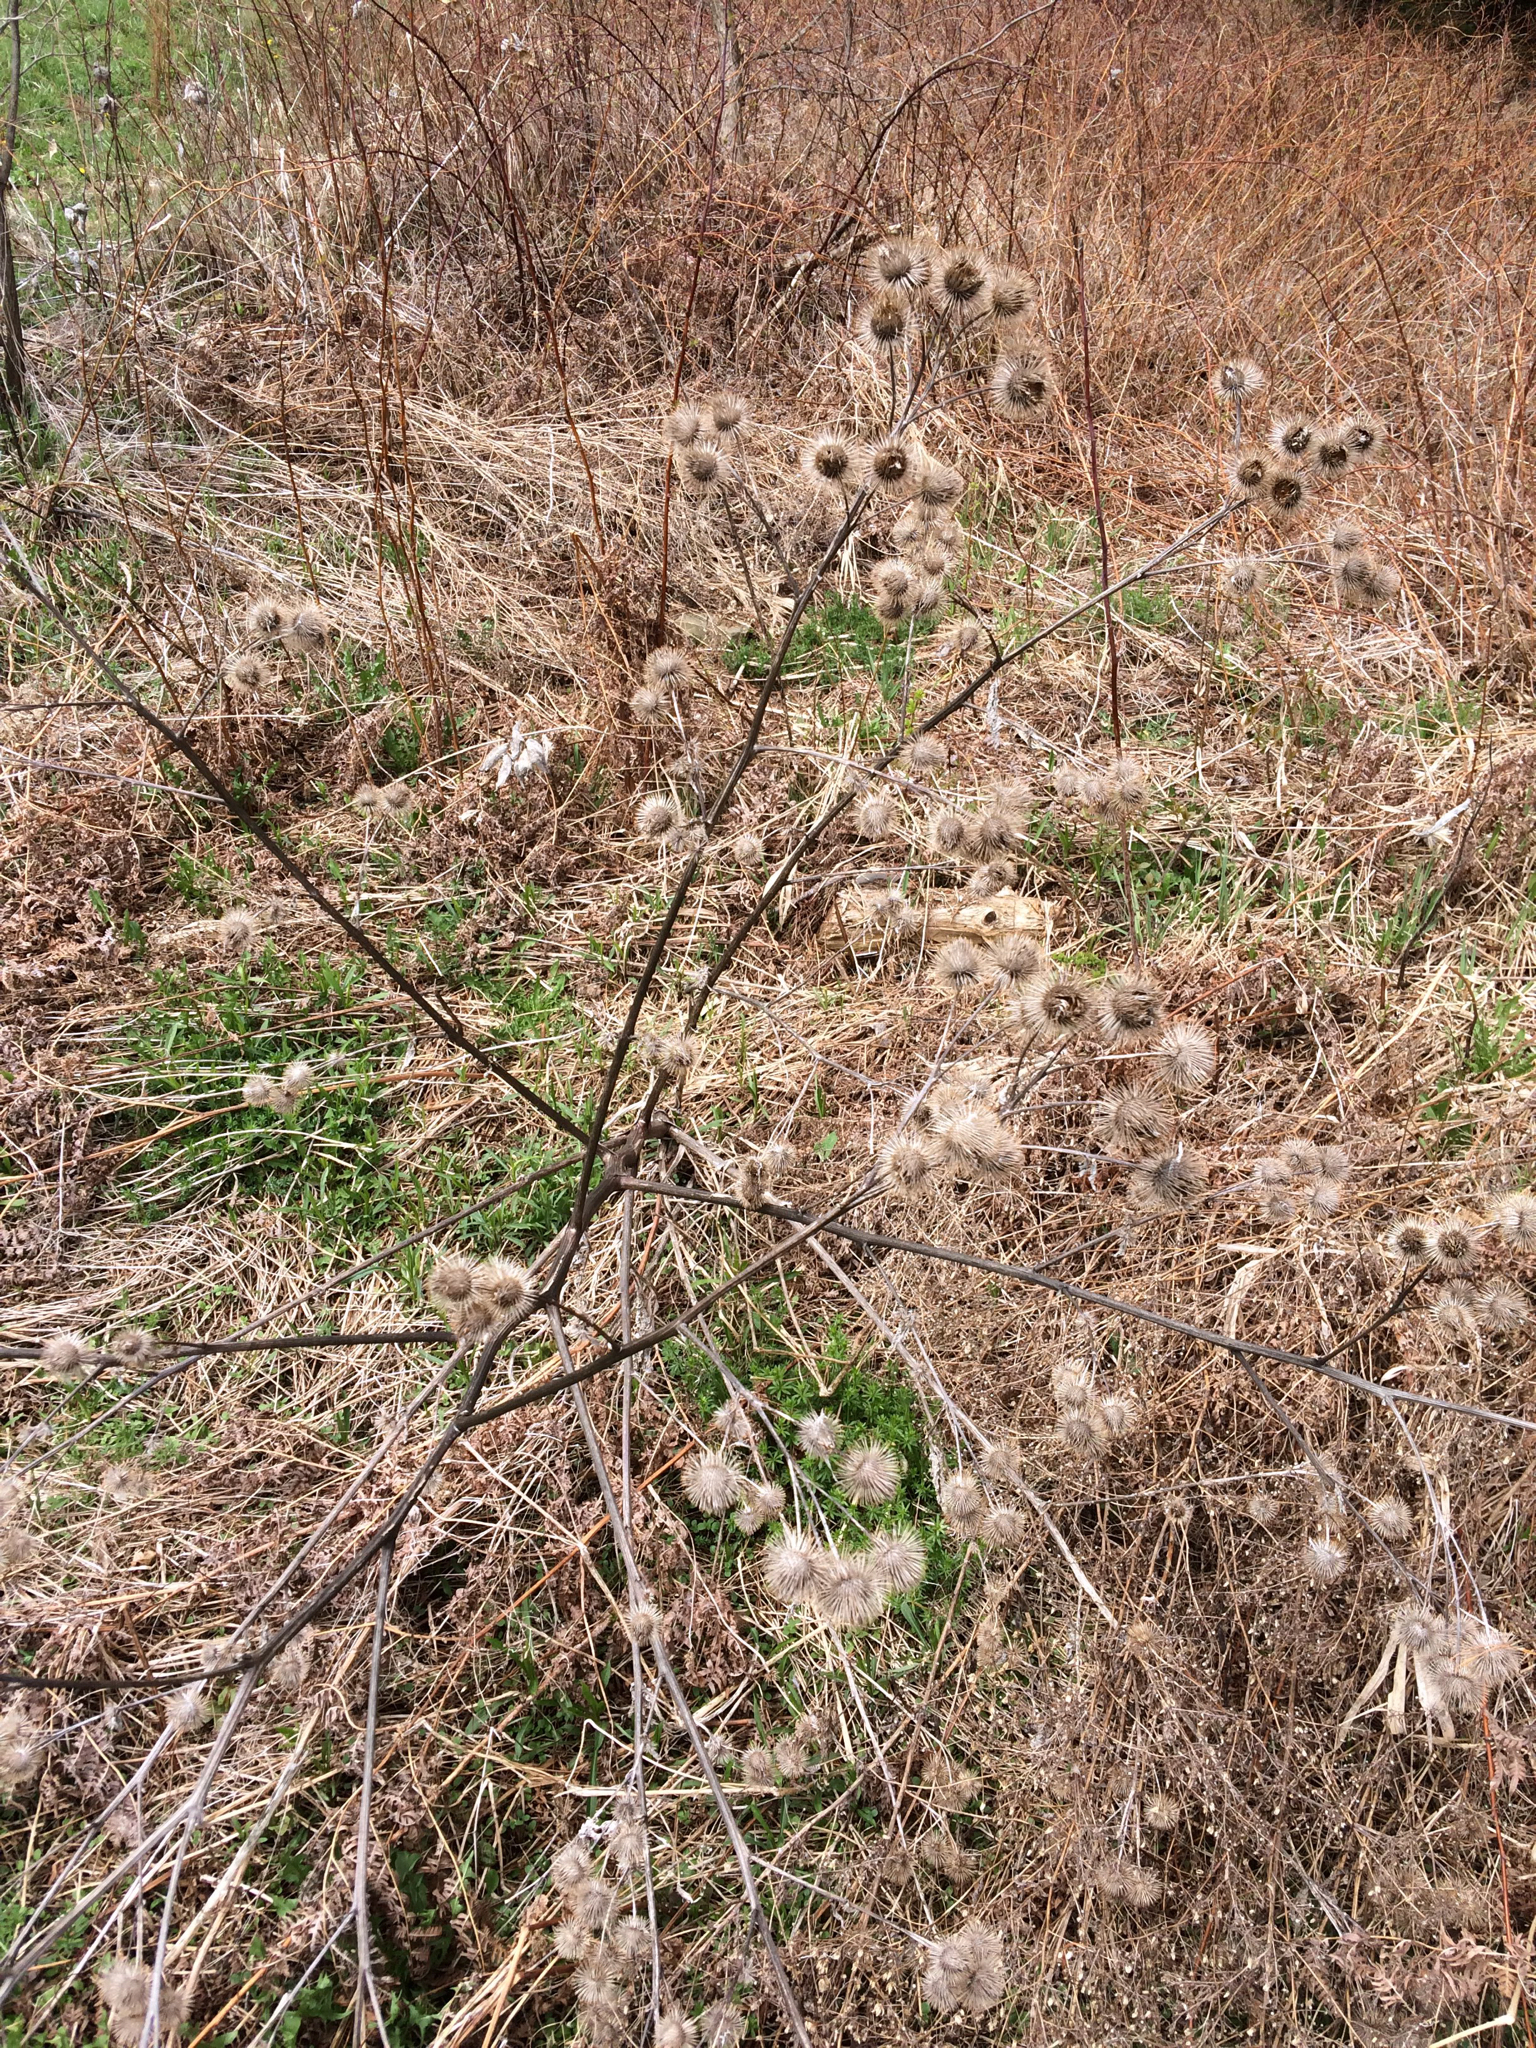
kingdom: Plantae
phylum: Tracheophyta
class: Magnoliopsida
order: Asterales
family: Asteraceae
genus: Arctium
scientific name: Arctium lappa
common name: Greater burdock
